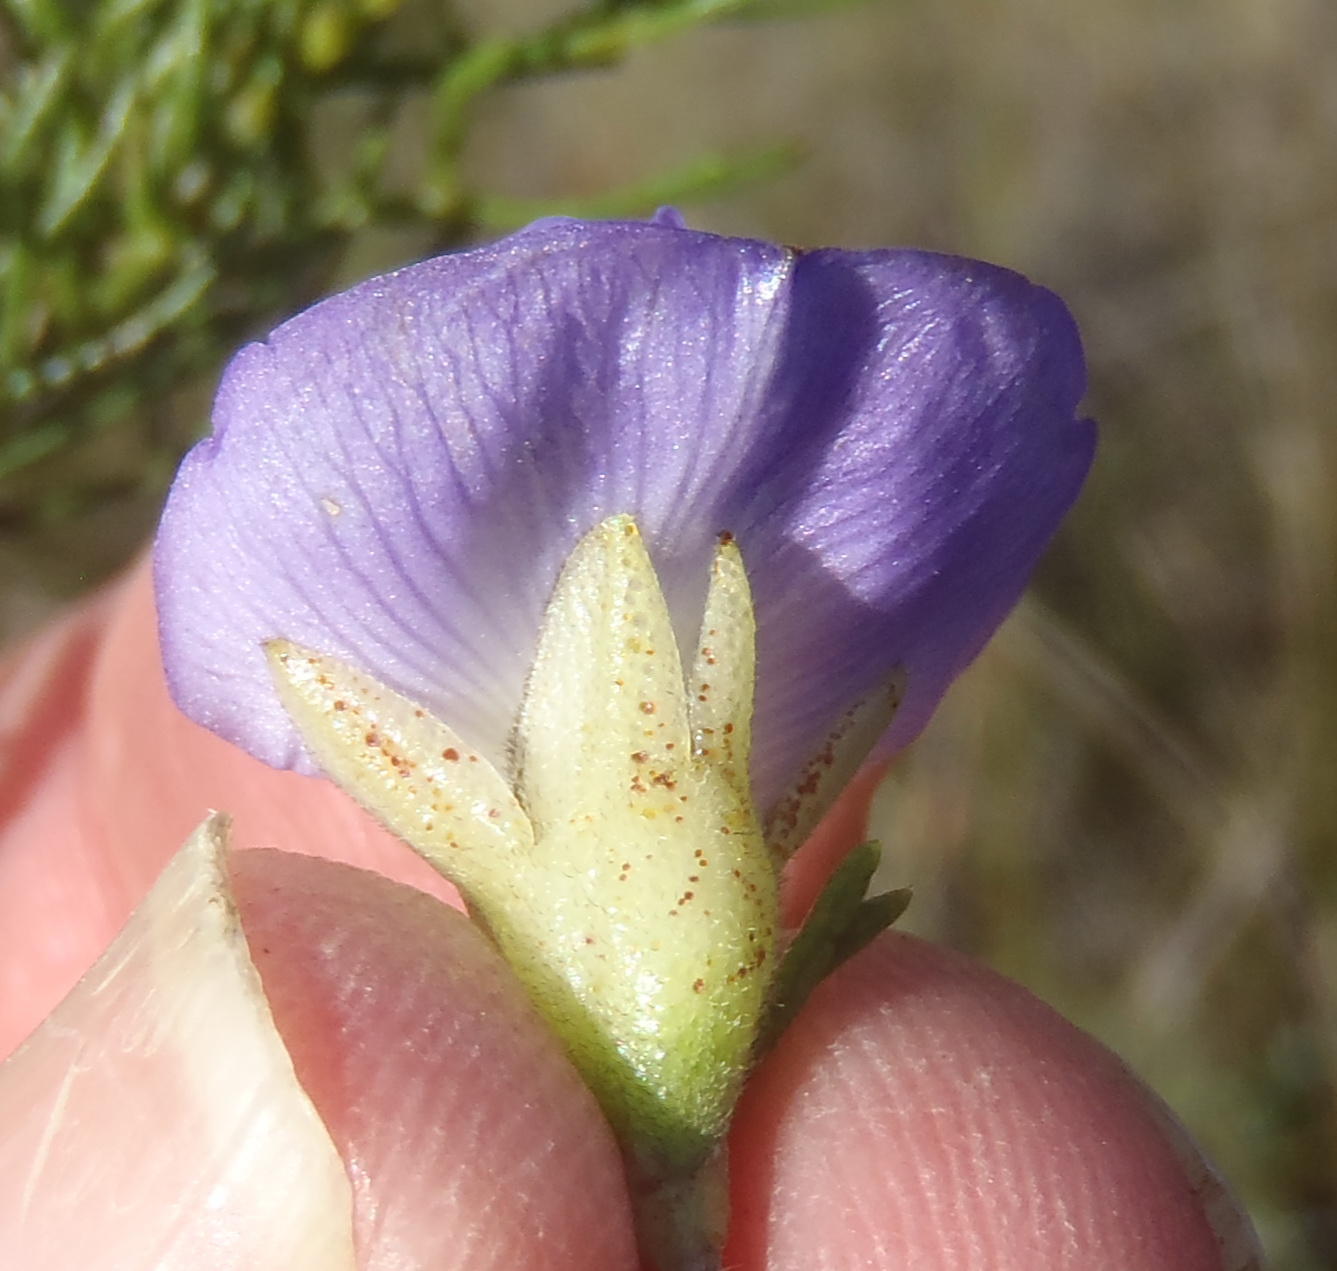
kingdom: Plantae
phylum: Tracheophyta
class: Magnoliopsida
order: Fabales
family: Fabaceae
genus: Psoralea
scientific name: Psoralea speciosa
